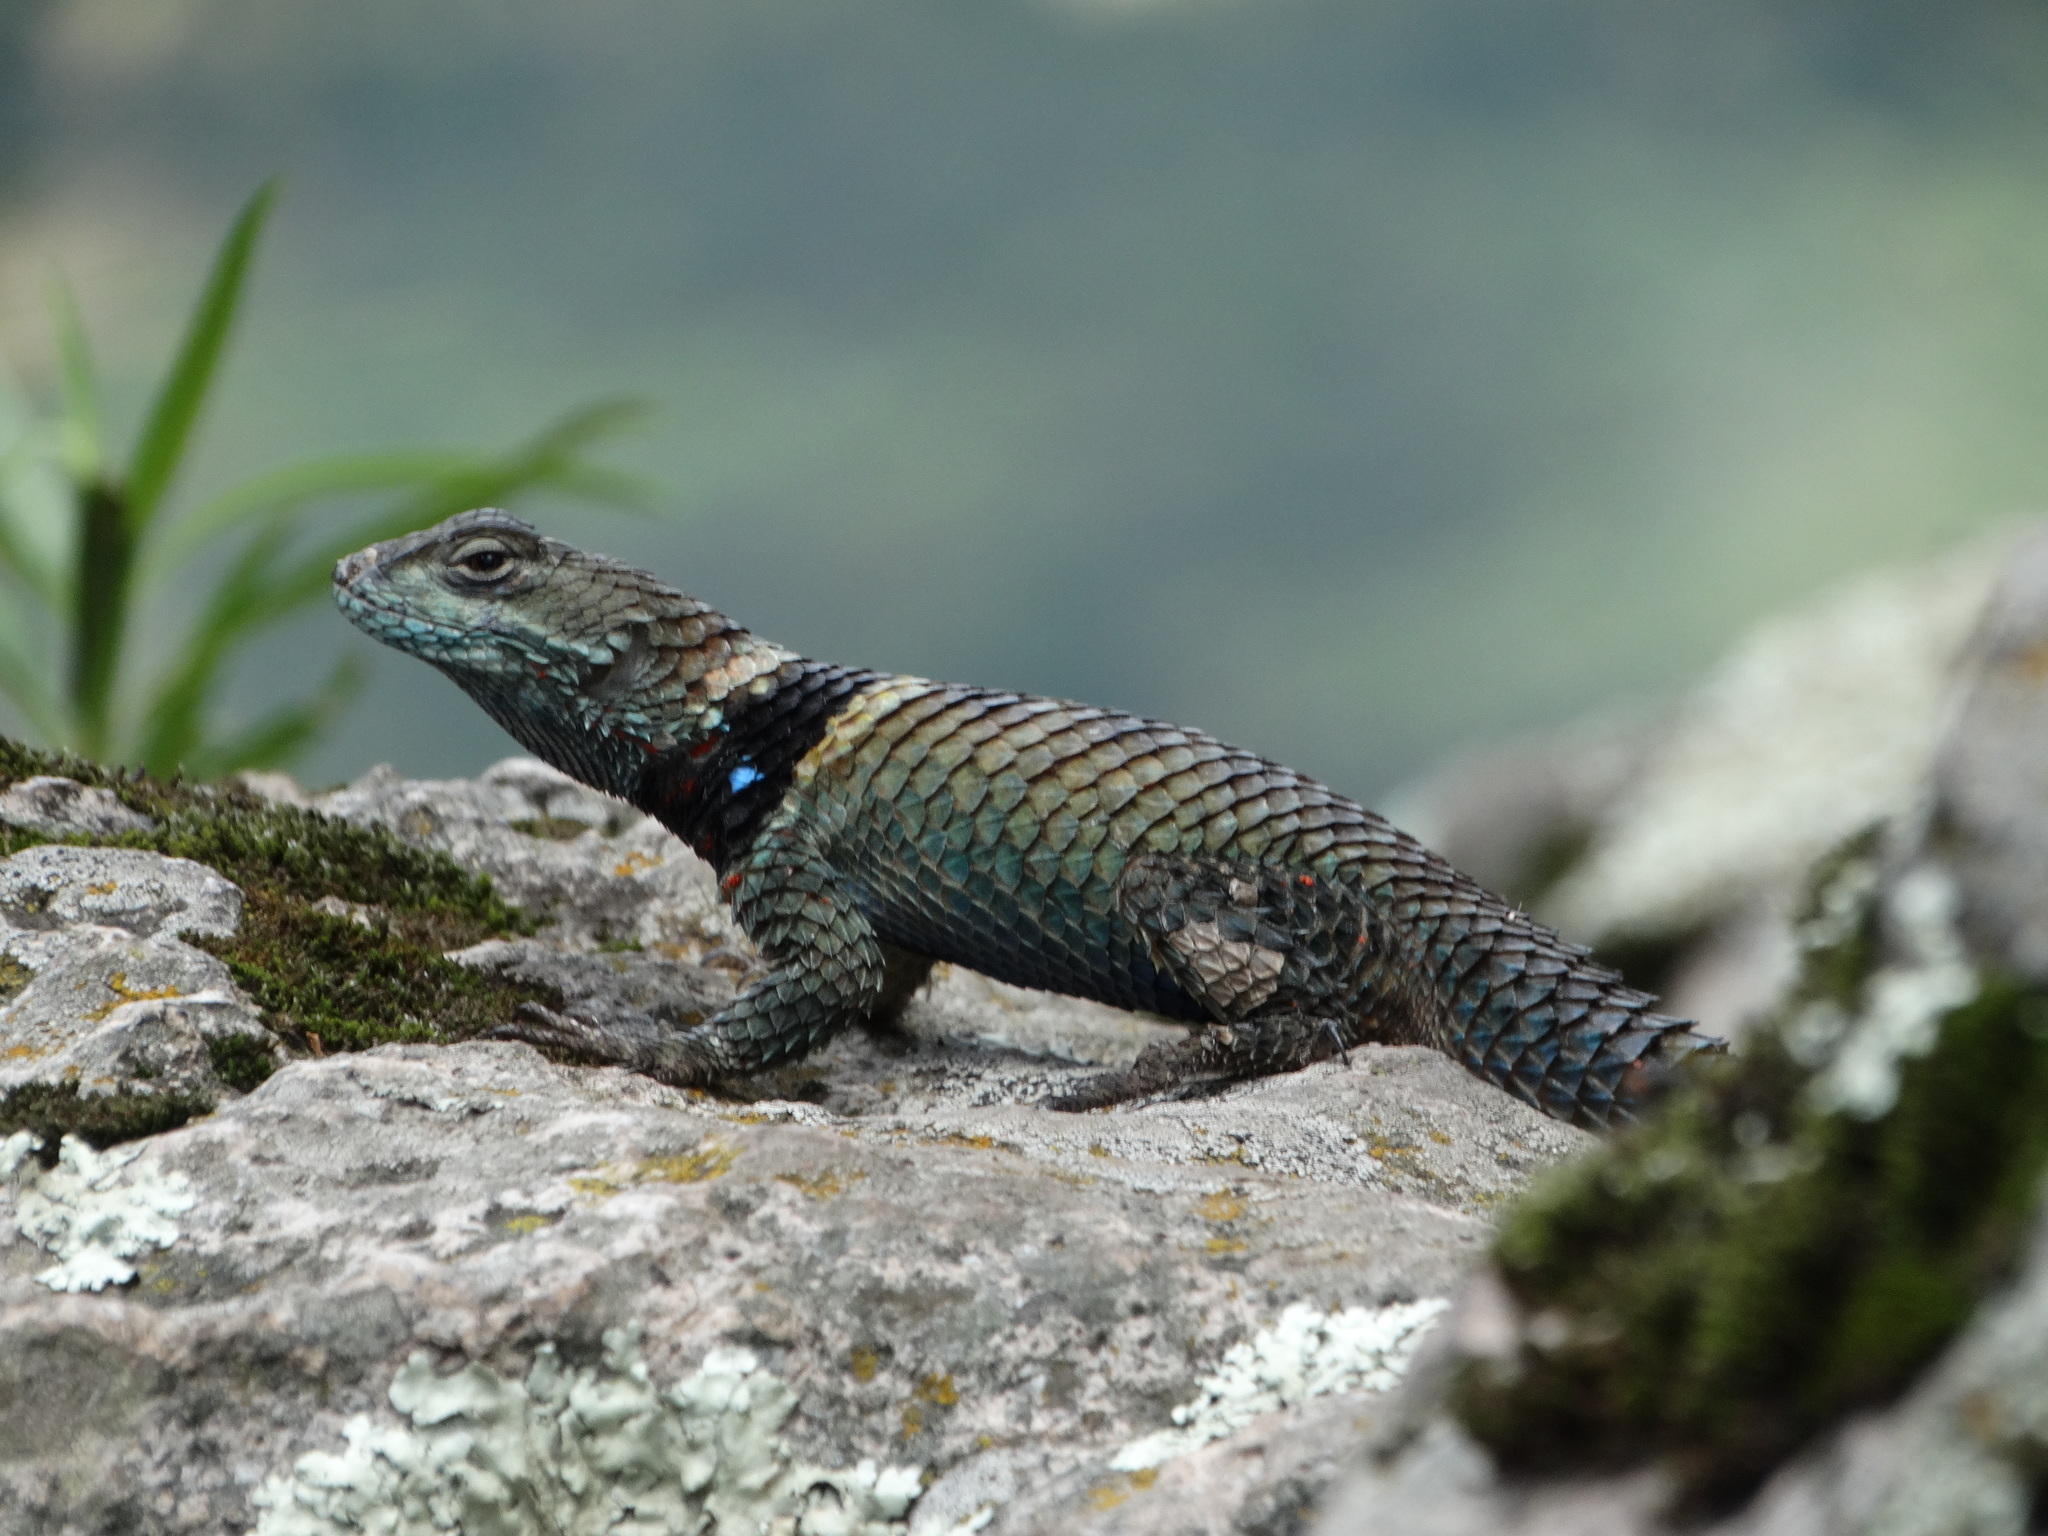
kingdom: Animalia
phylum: Chordata
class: Squamata
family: Phrynosomatidae
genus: Sceloporus
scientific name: Sceloporus torquatus
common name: Central plateau torquate lizard [melanogaster]
